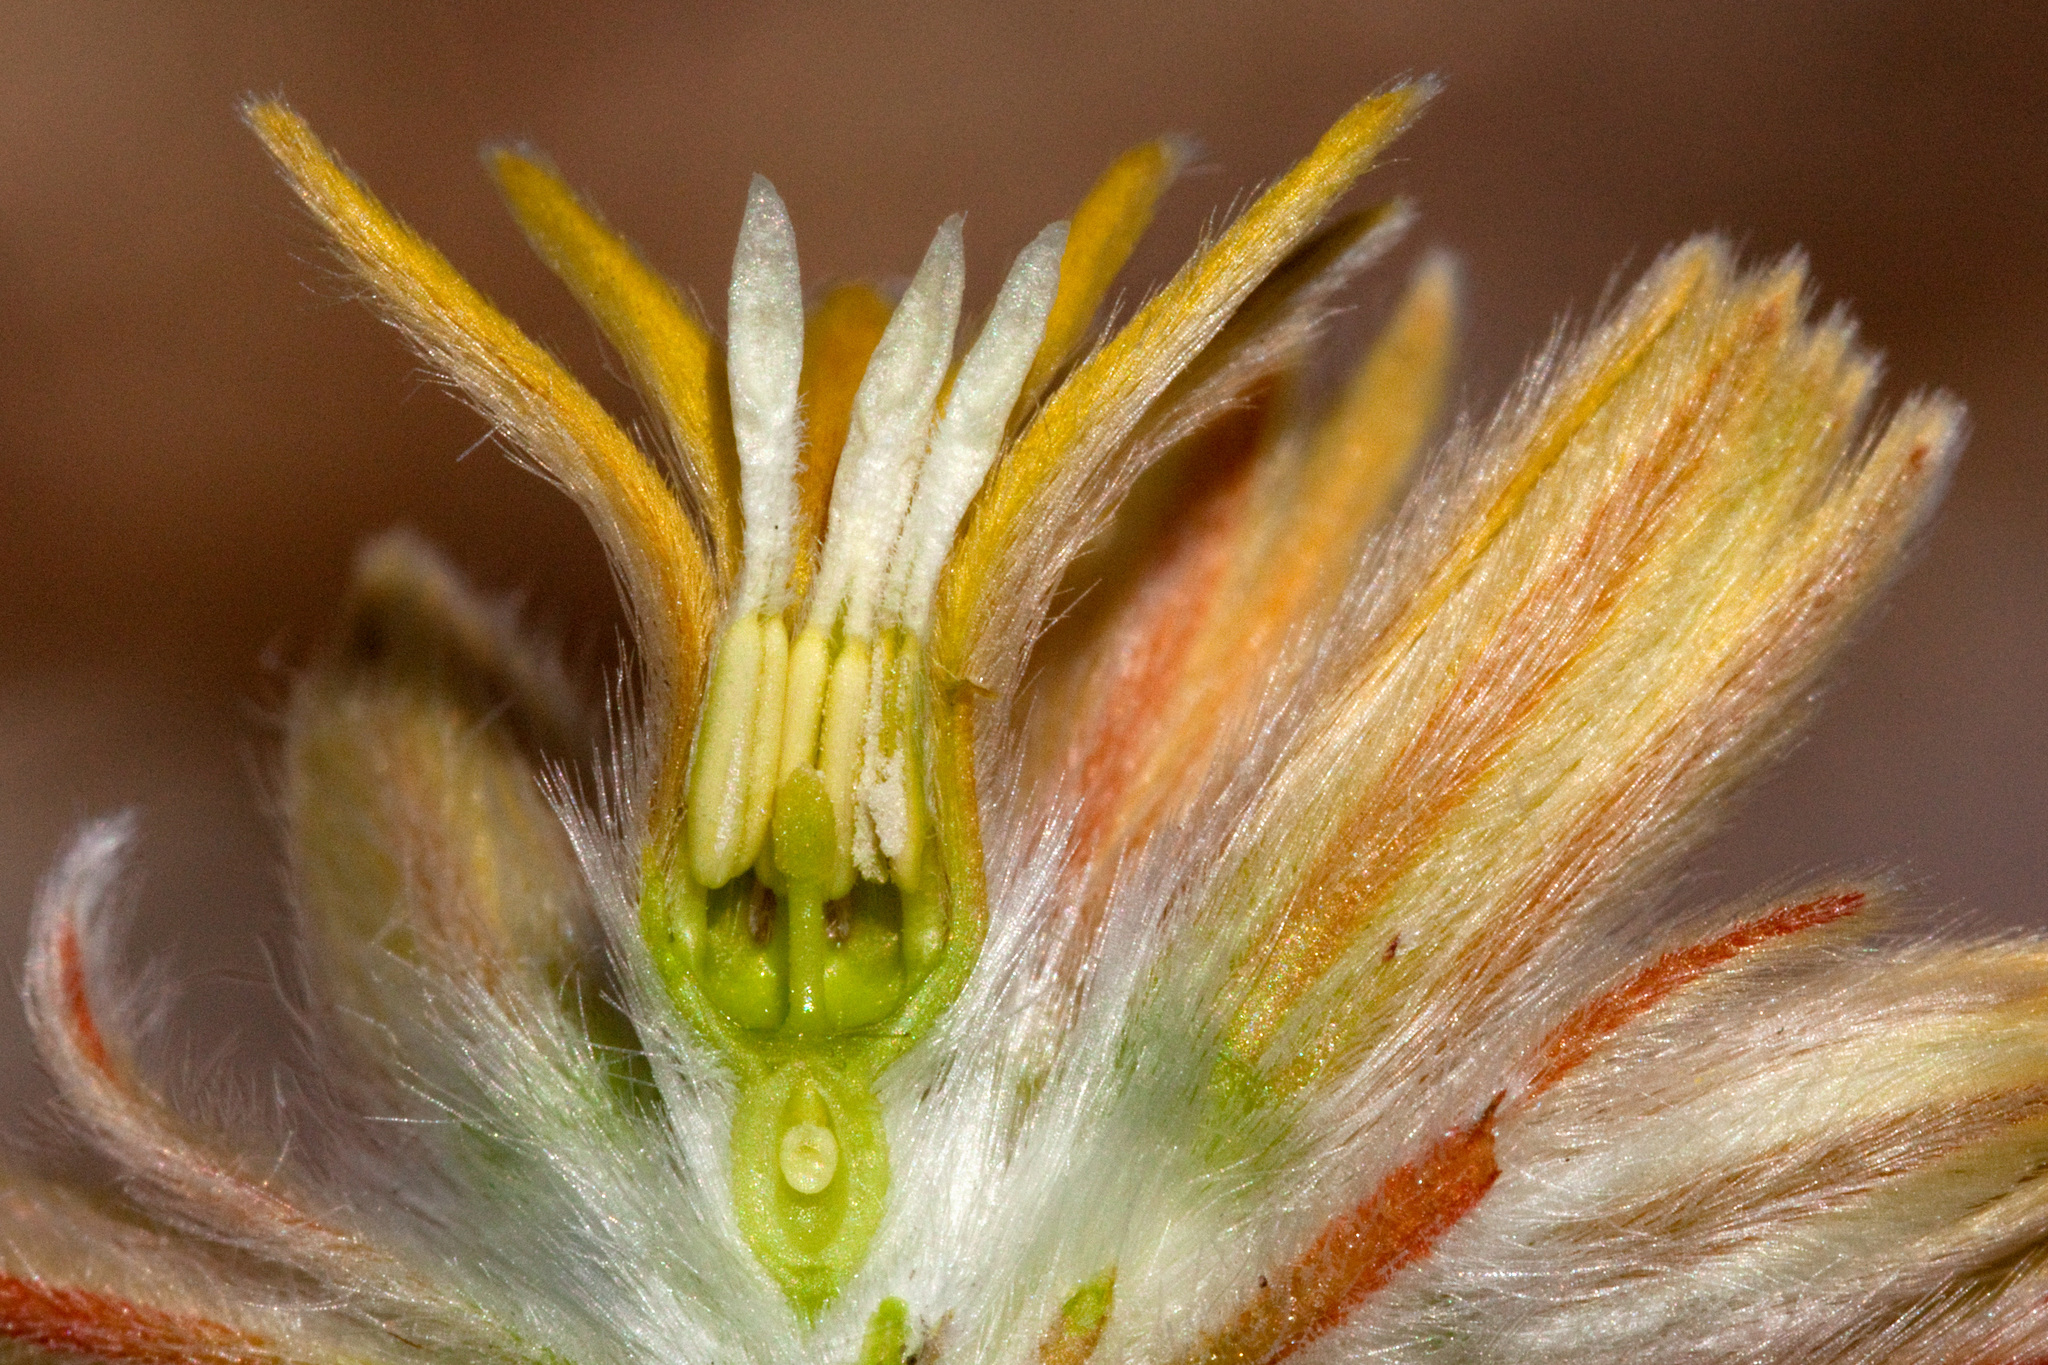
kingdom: Plantae
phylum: Tracheophyta
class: Magnoliopsida
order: Cornales
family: Loasaceae
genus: Cevallia
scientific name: Cevallia sinuata
